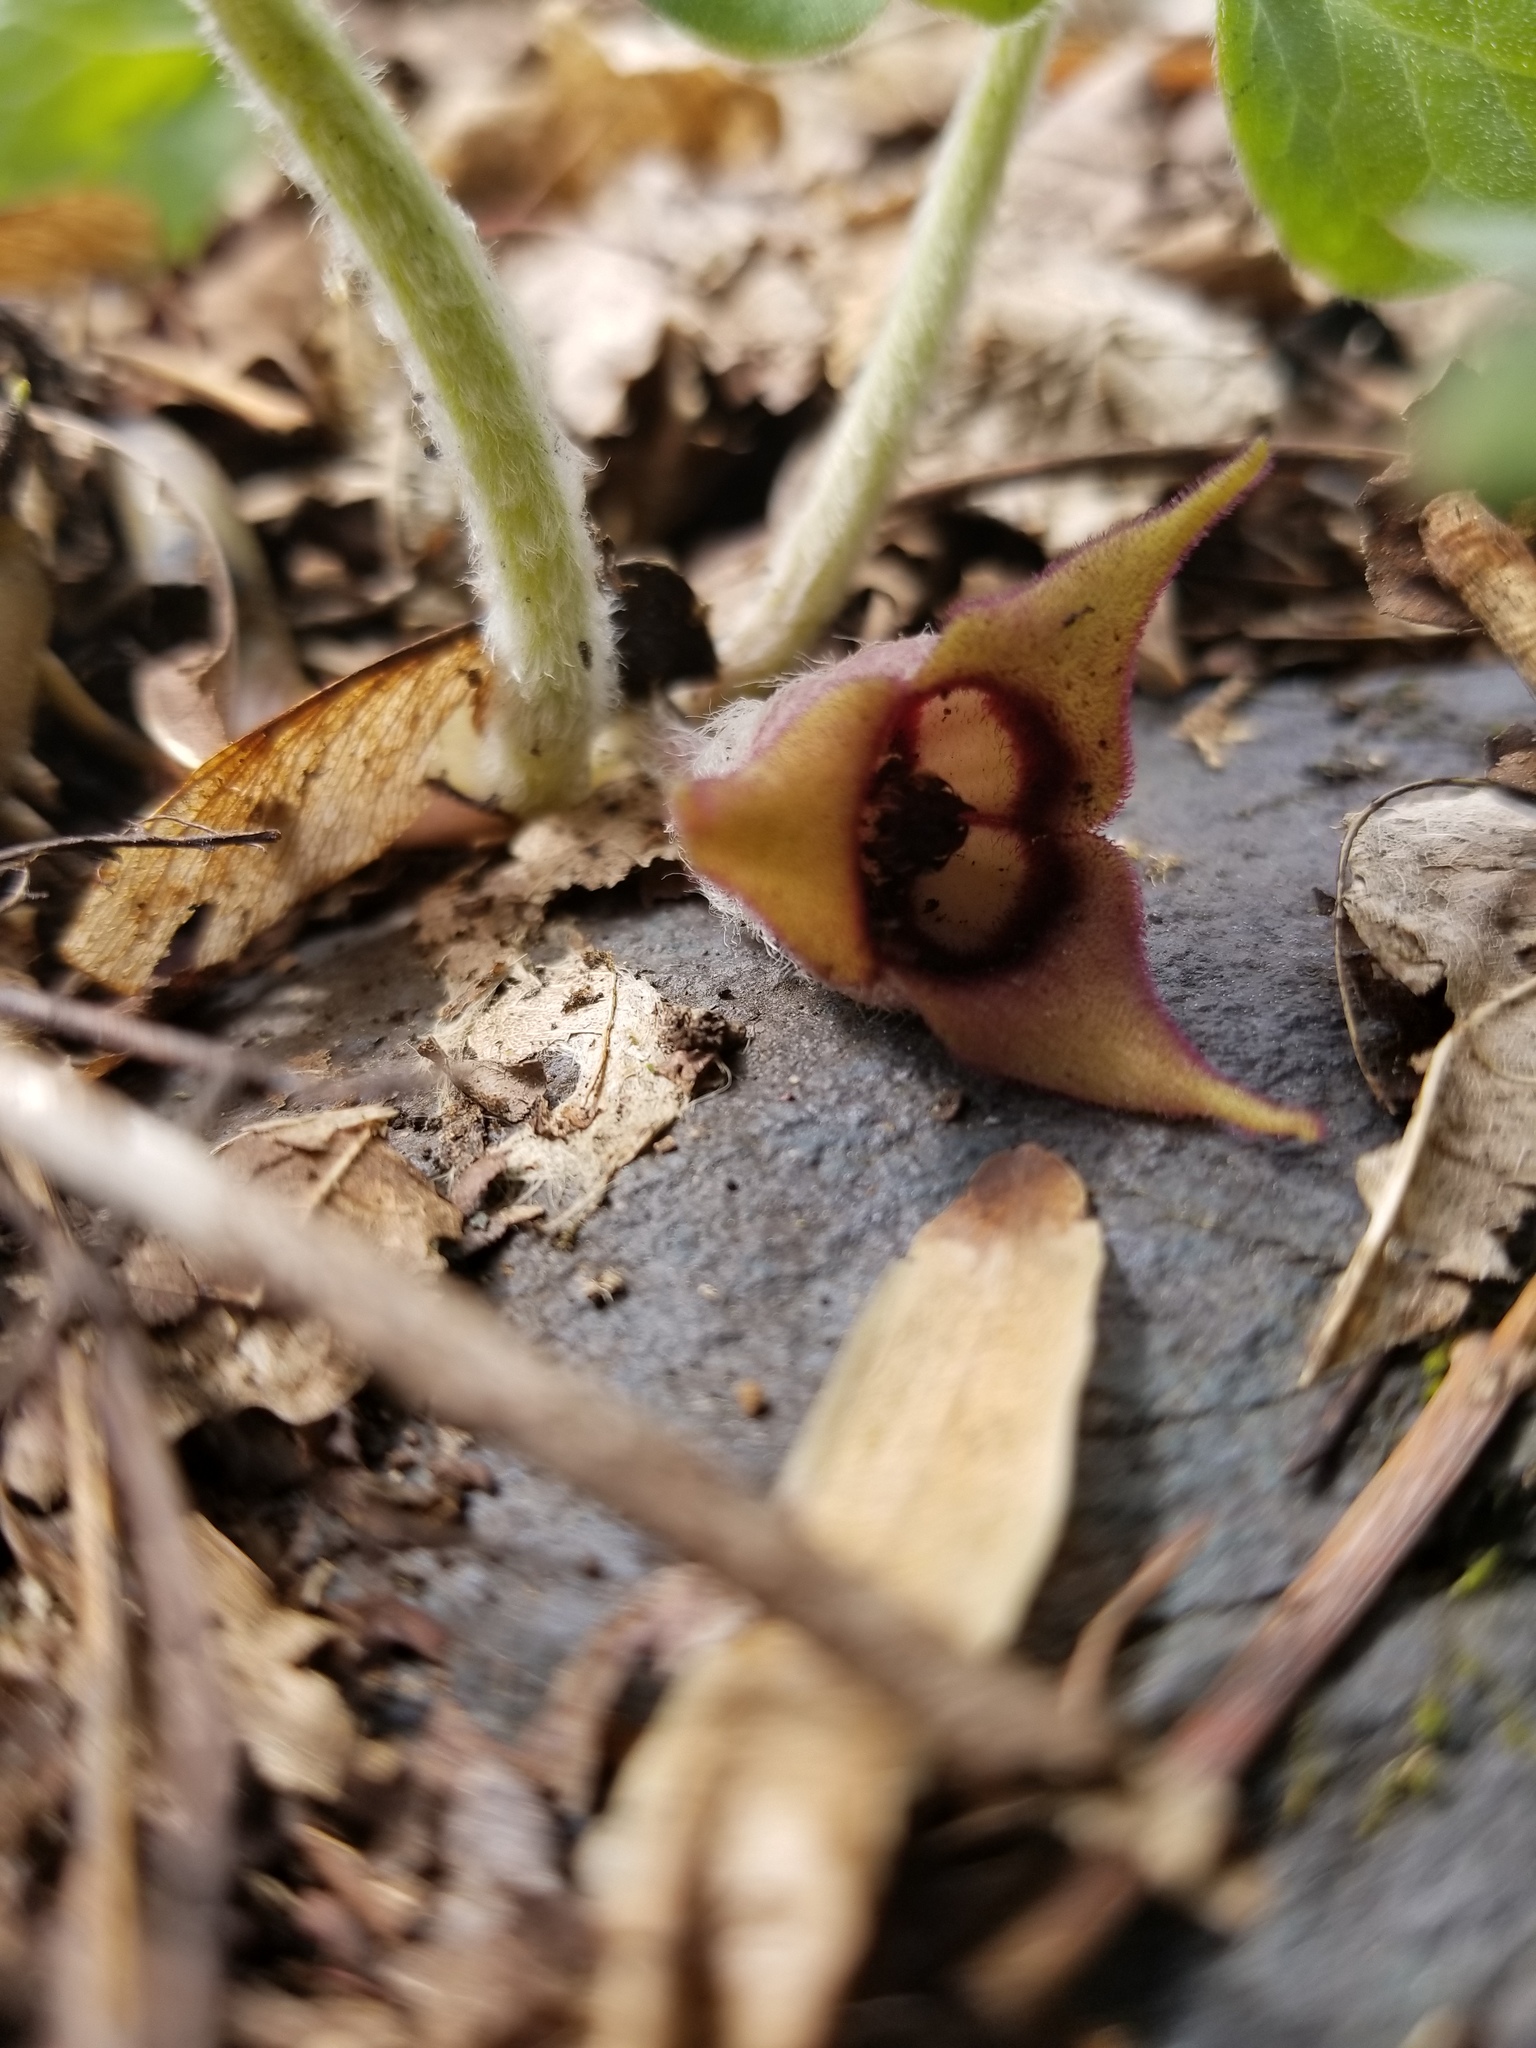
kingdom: Plantae
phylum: Tracheophyta
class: Magnoliopsida
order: Piperales
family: Aristolochiaceae
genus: Asarum
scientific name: Asarum canadense
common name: Wild ginger
